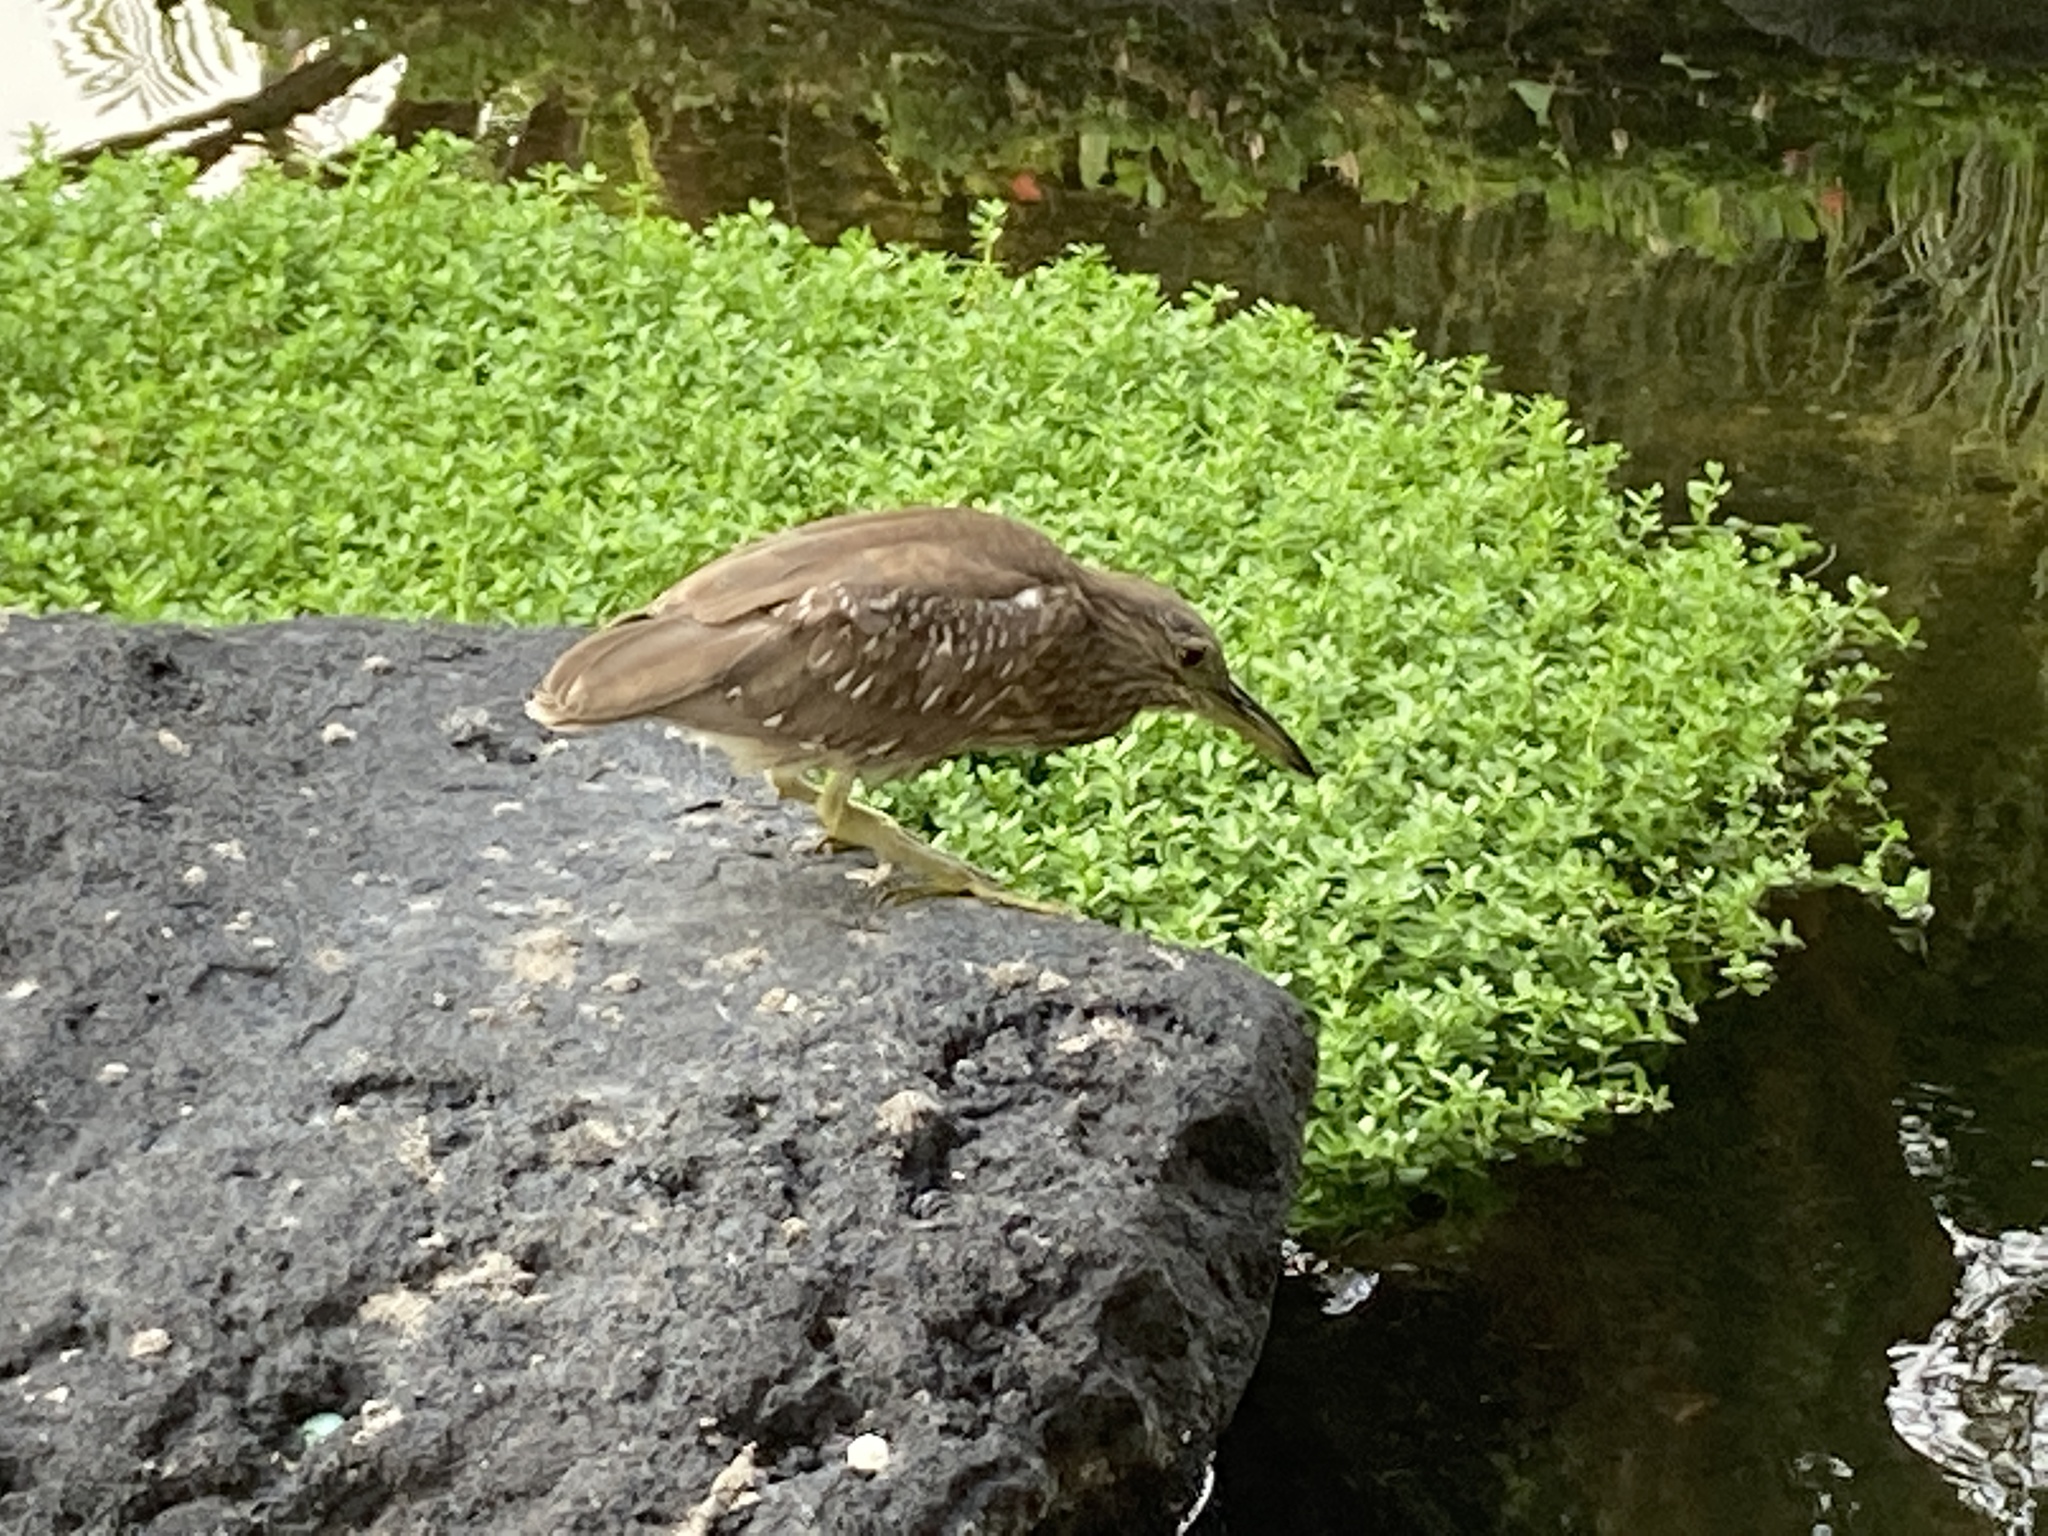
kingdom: Animalia
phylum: Chordata
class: Aves
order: Pelecaniformes
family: Ardeidae
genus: Nycticorax
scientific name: Nycticorax nycticorax
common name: Black-crowned night heron
